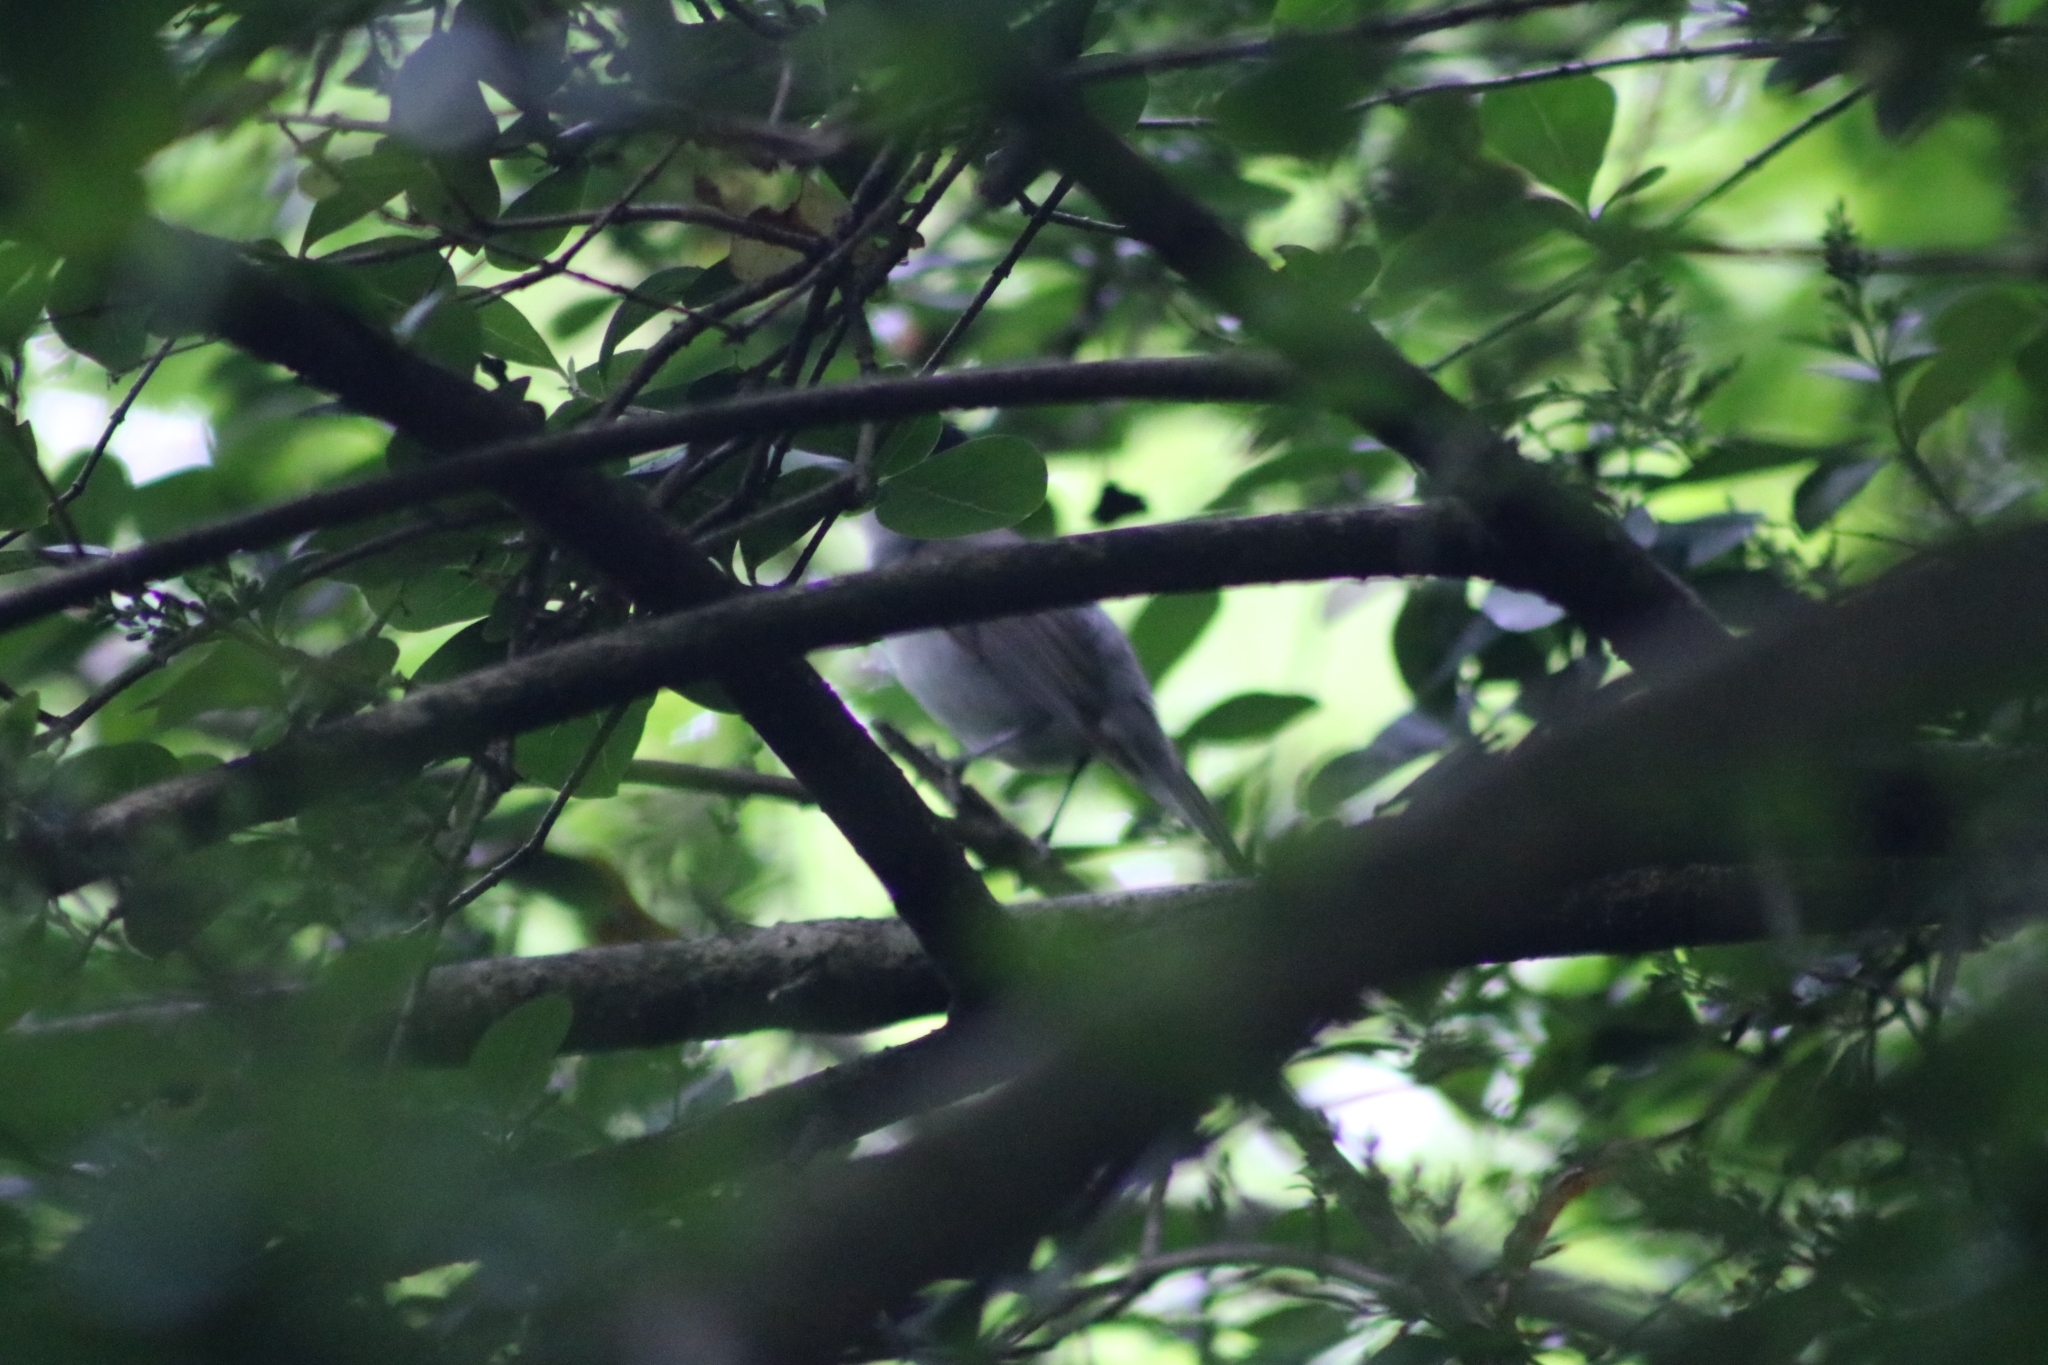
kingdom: Animalia
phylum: Chordata
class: Aves
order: Passeriformes
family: Sylviidae
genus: Sylvia
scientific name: Sylvia atricapilla
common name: Eurasian blackcap
